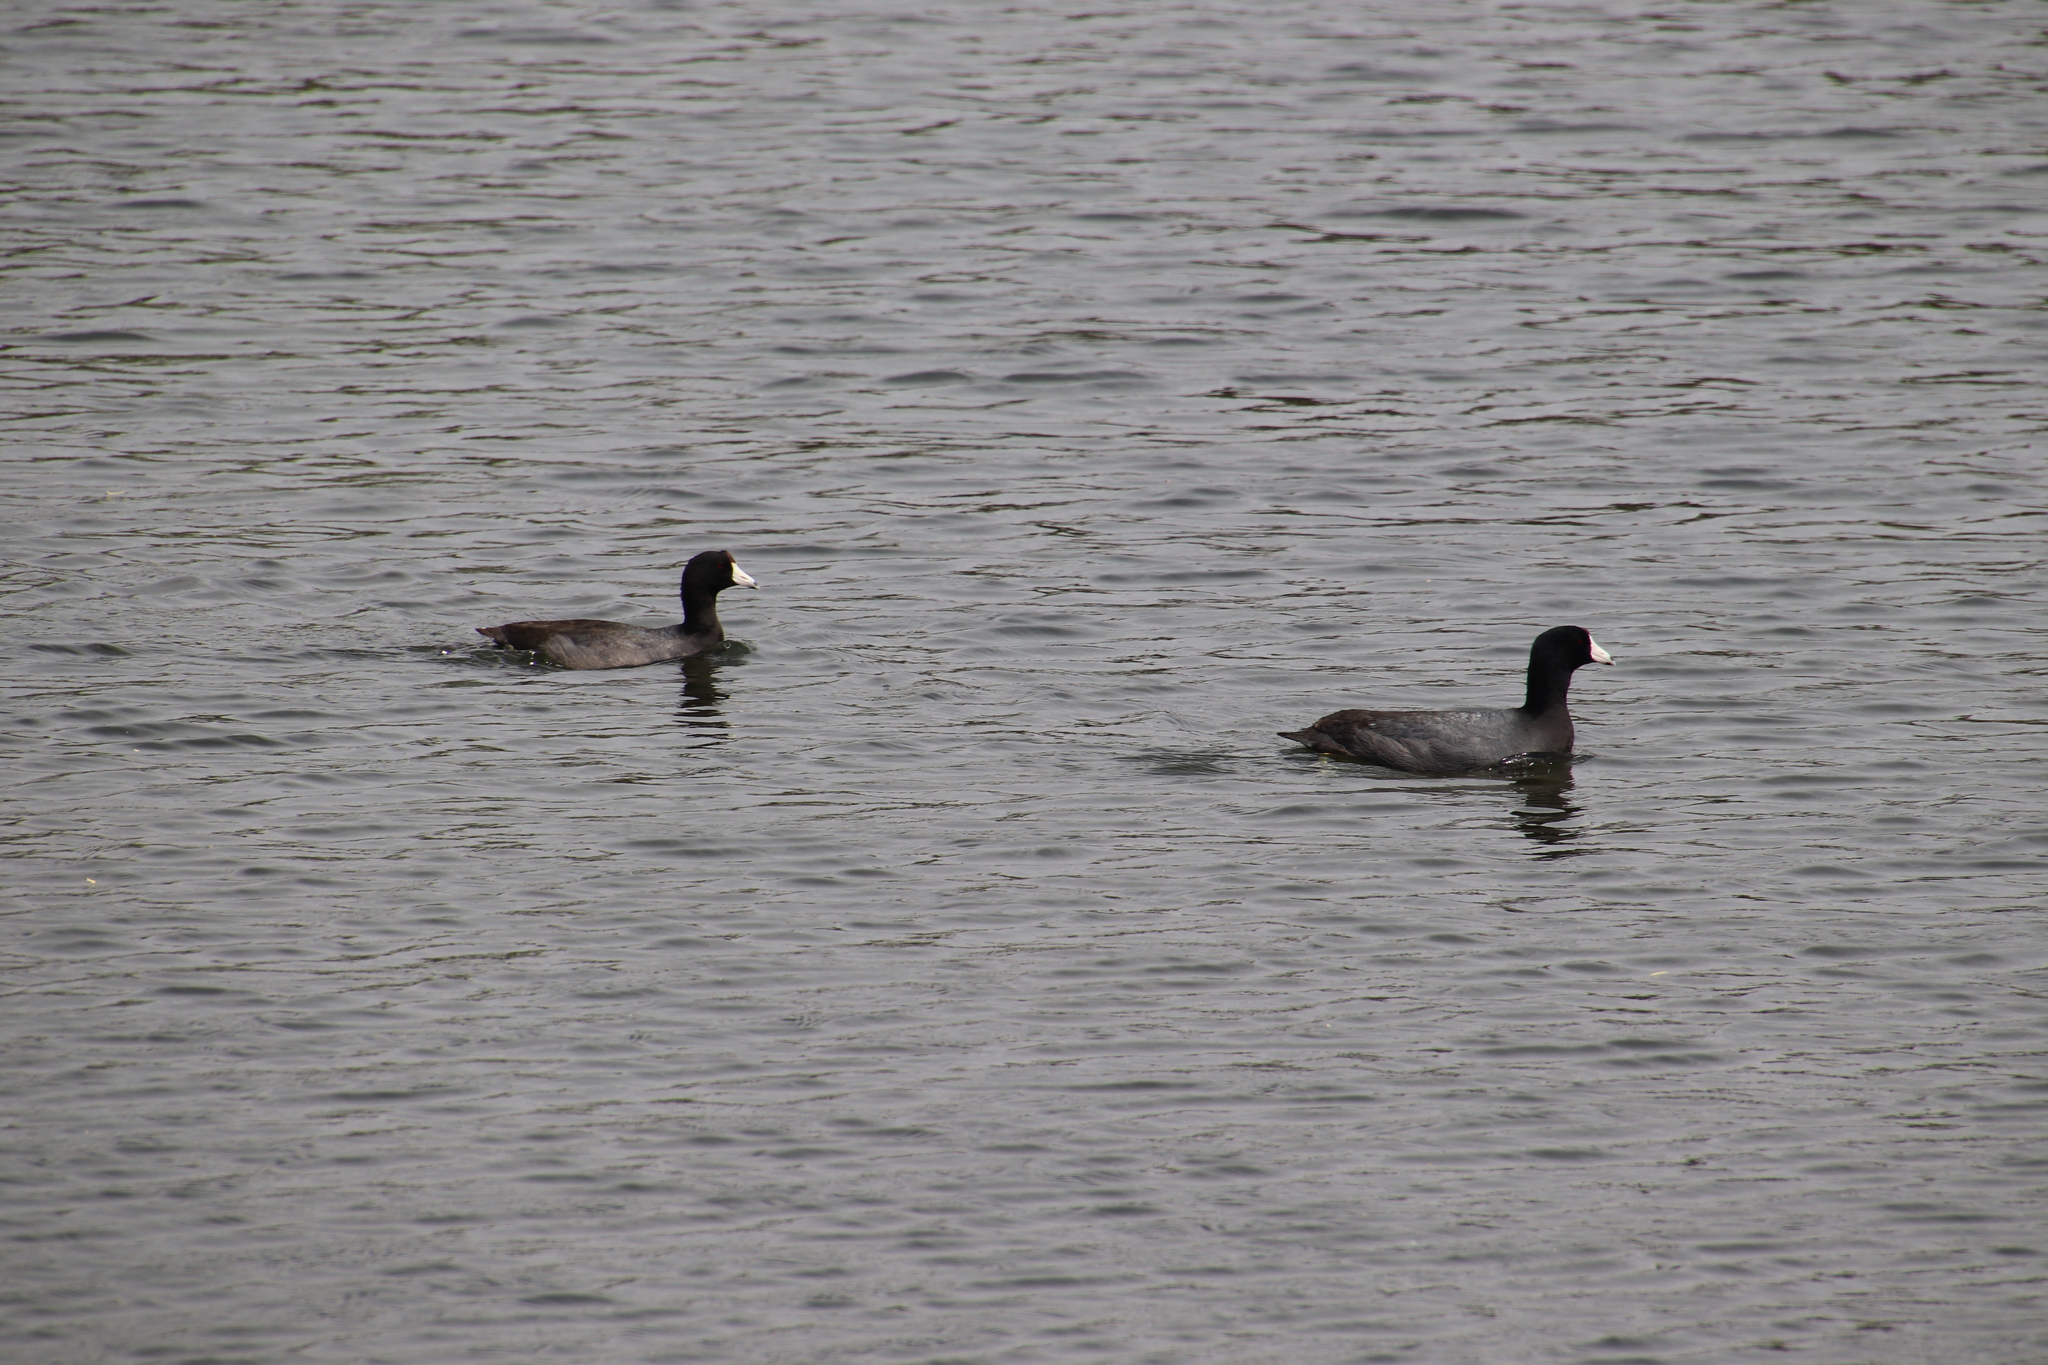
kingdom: Animalia
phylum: Chordata
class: Aves
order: Gruiformes
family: Rallidae
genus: Fulica
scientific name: Fulica americana
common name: American coot
